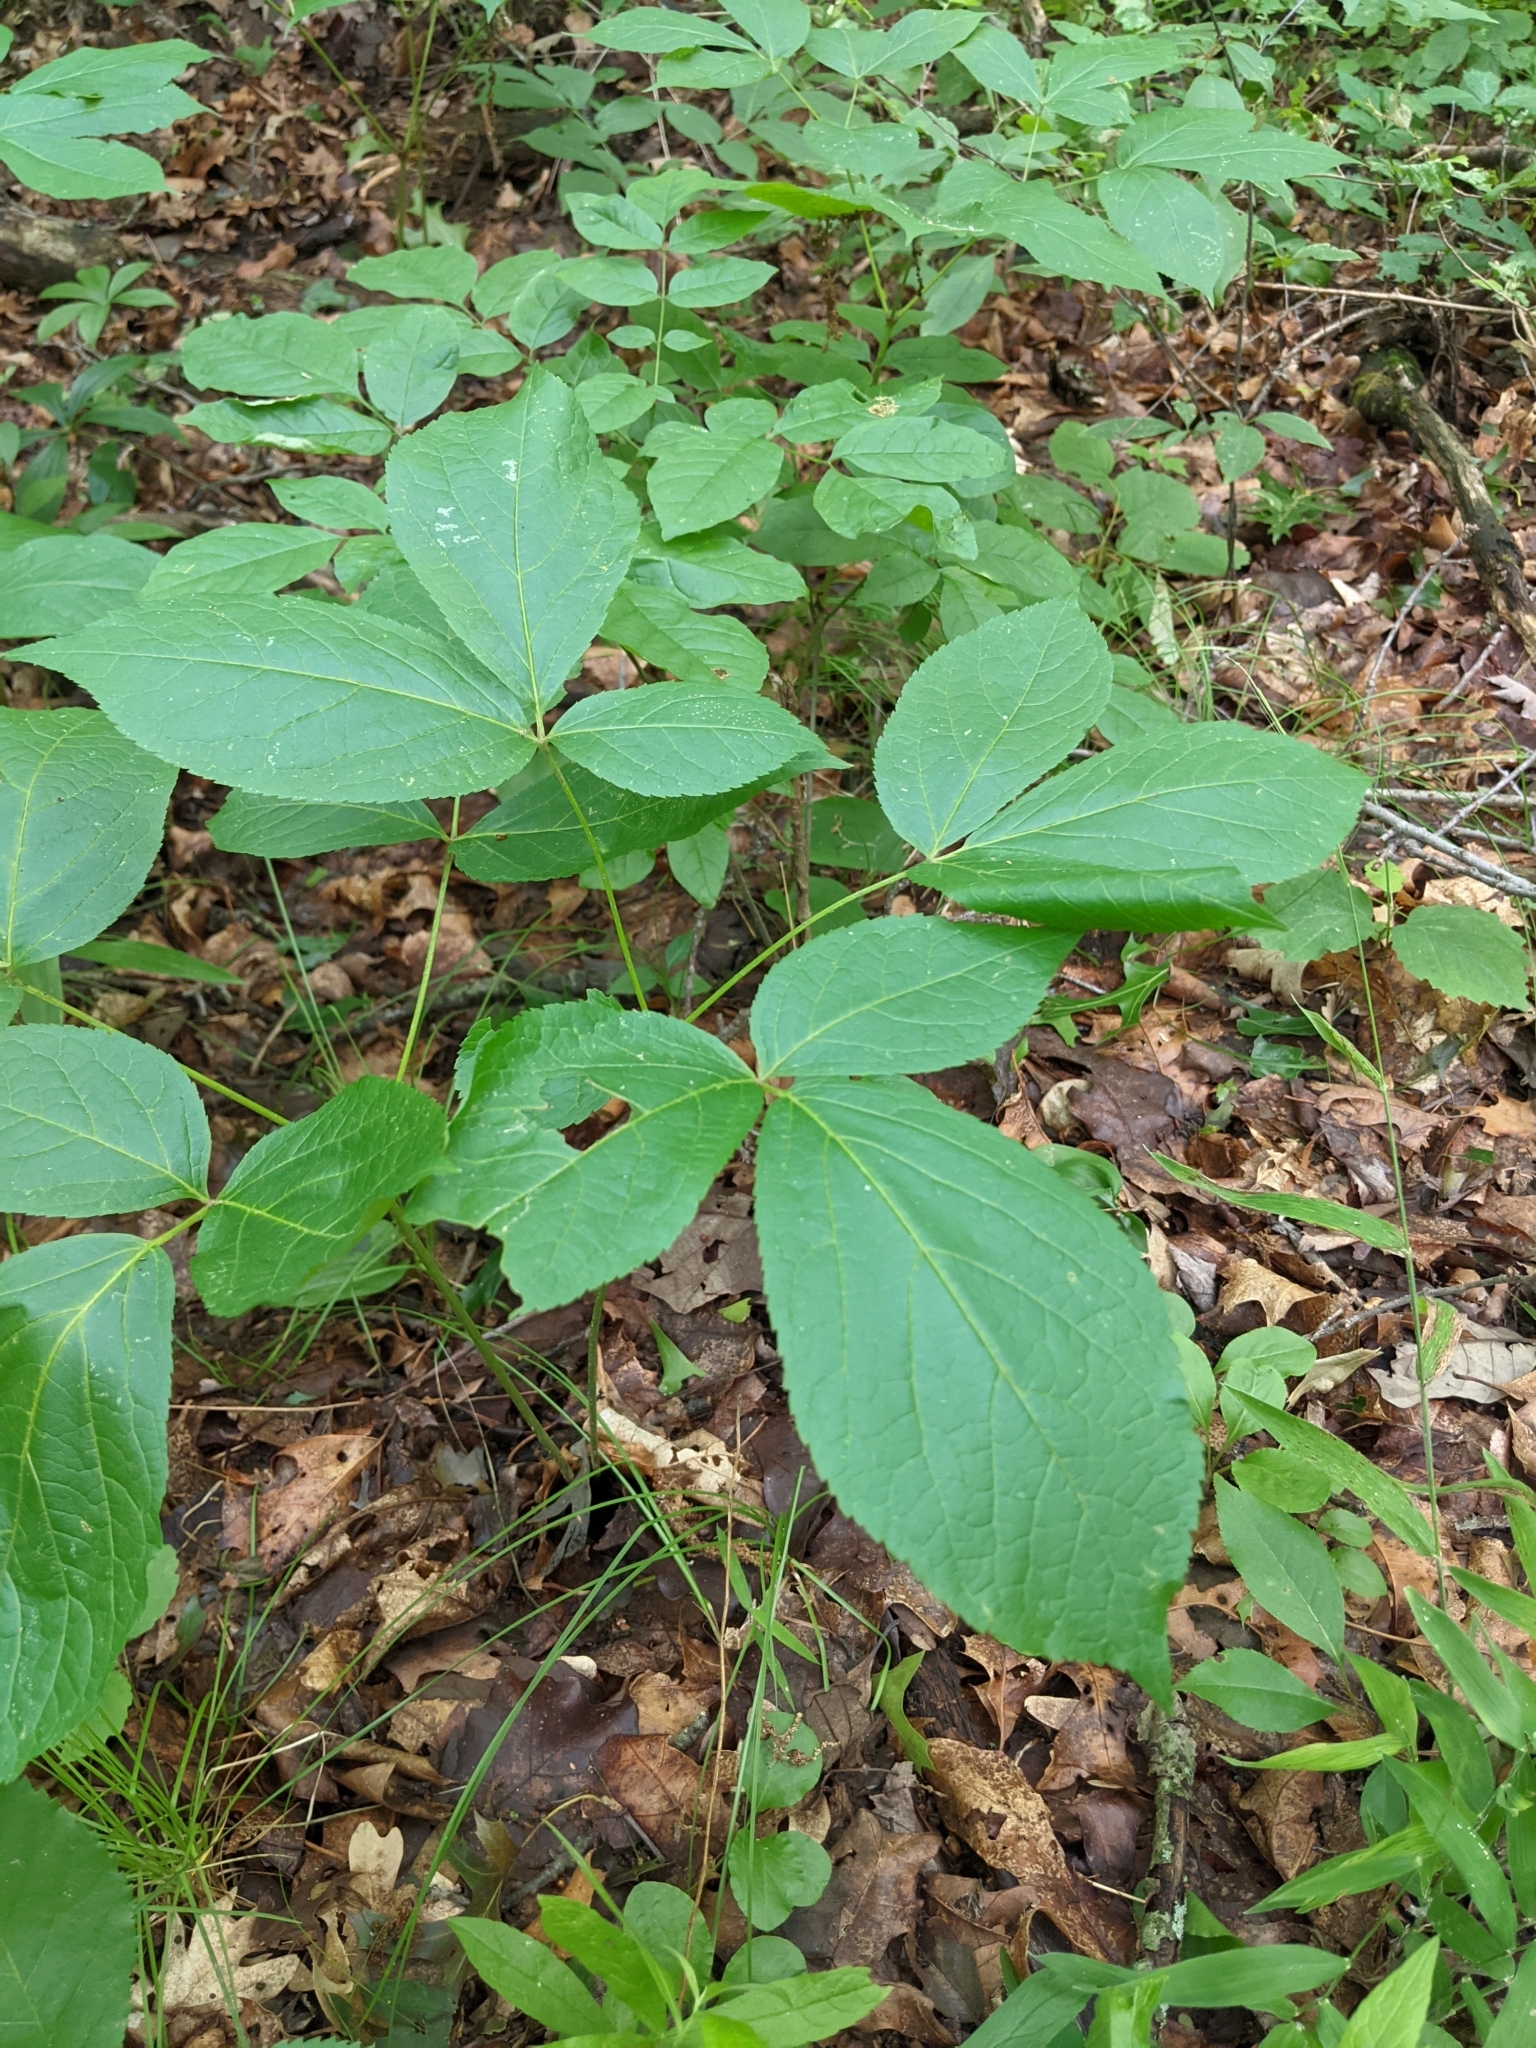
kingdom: Plantae
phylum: Tracheophyta
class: Magnoliopsida
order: Apiales
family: Araliaceae
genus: Aralia
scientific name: Aralia nudicaulis
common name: Wild sarsaparilla
